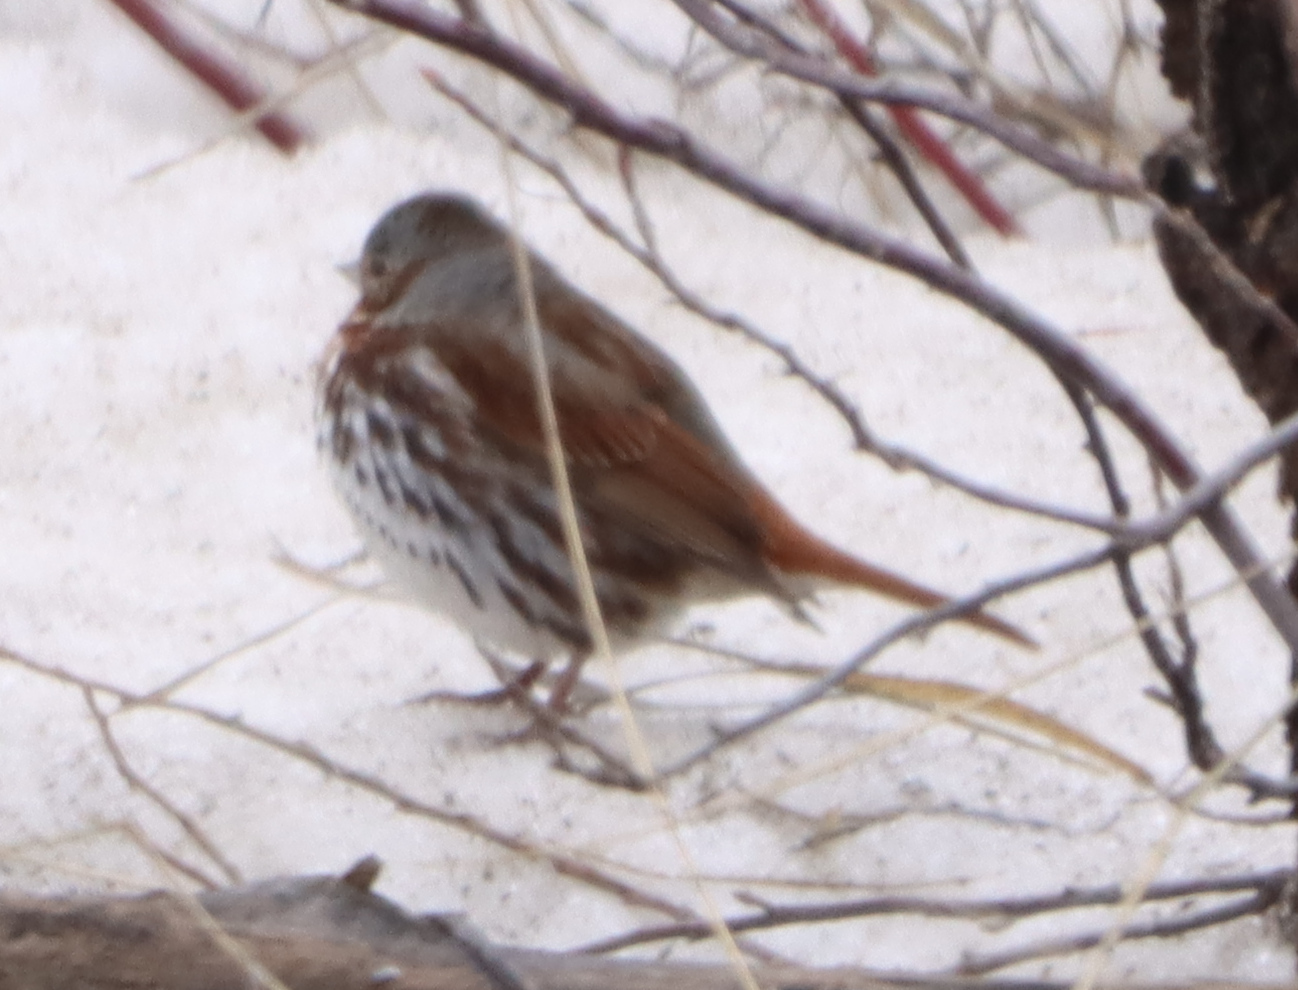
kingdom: Animalia
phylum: Chordata
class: Aves
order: Passeriformes
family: Passerellidae
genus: Passerella
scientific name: Passerella iliaca
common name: Fox sparrow
